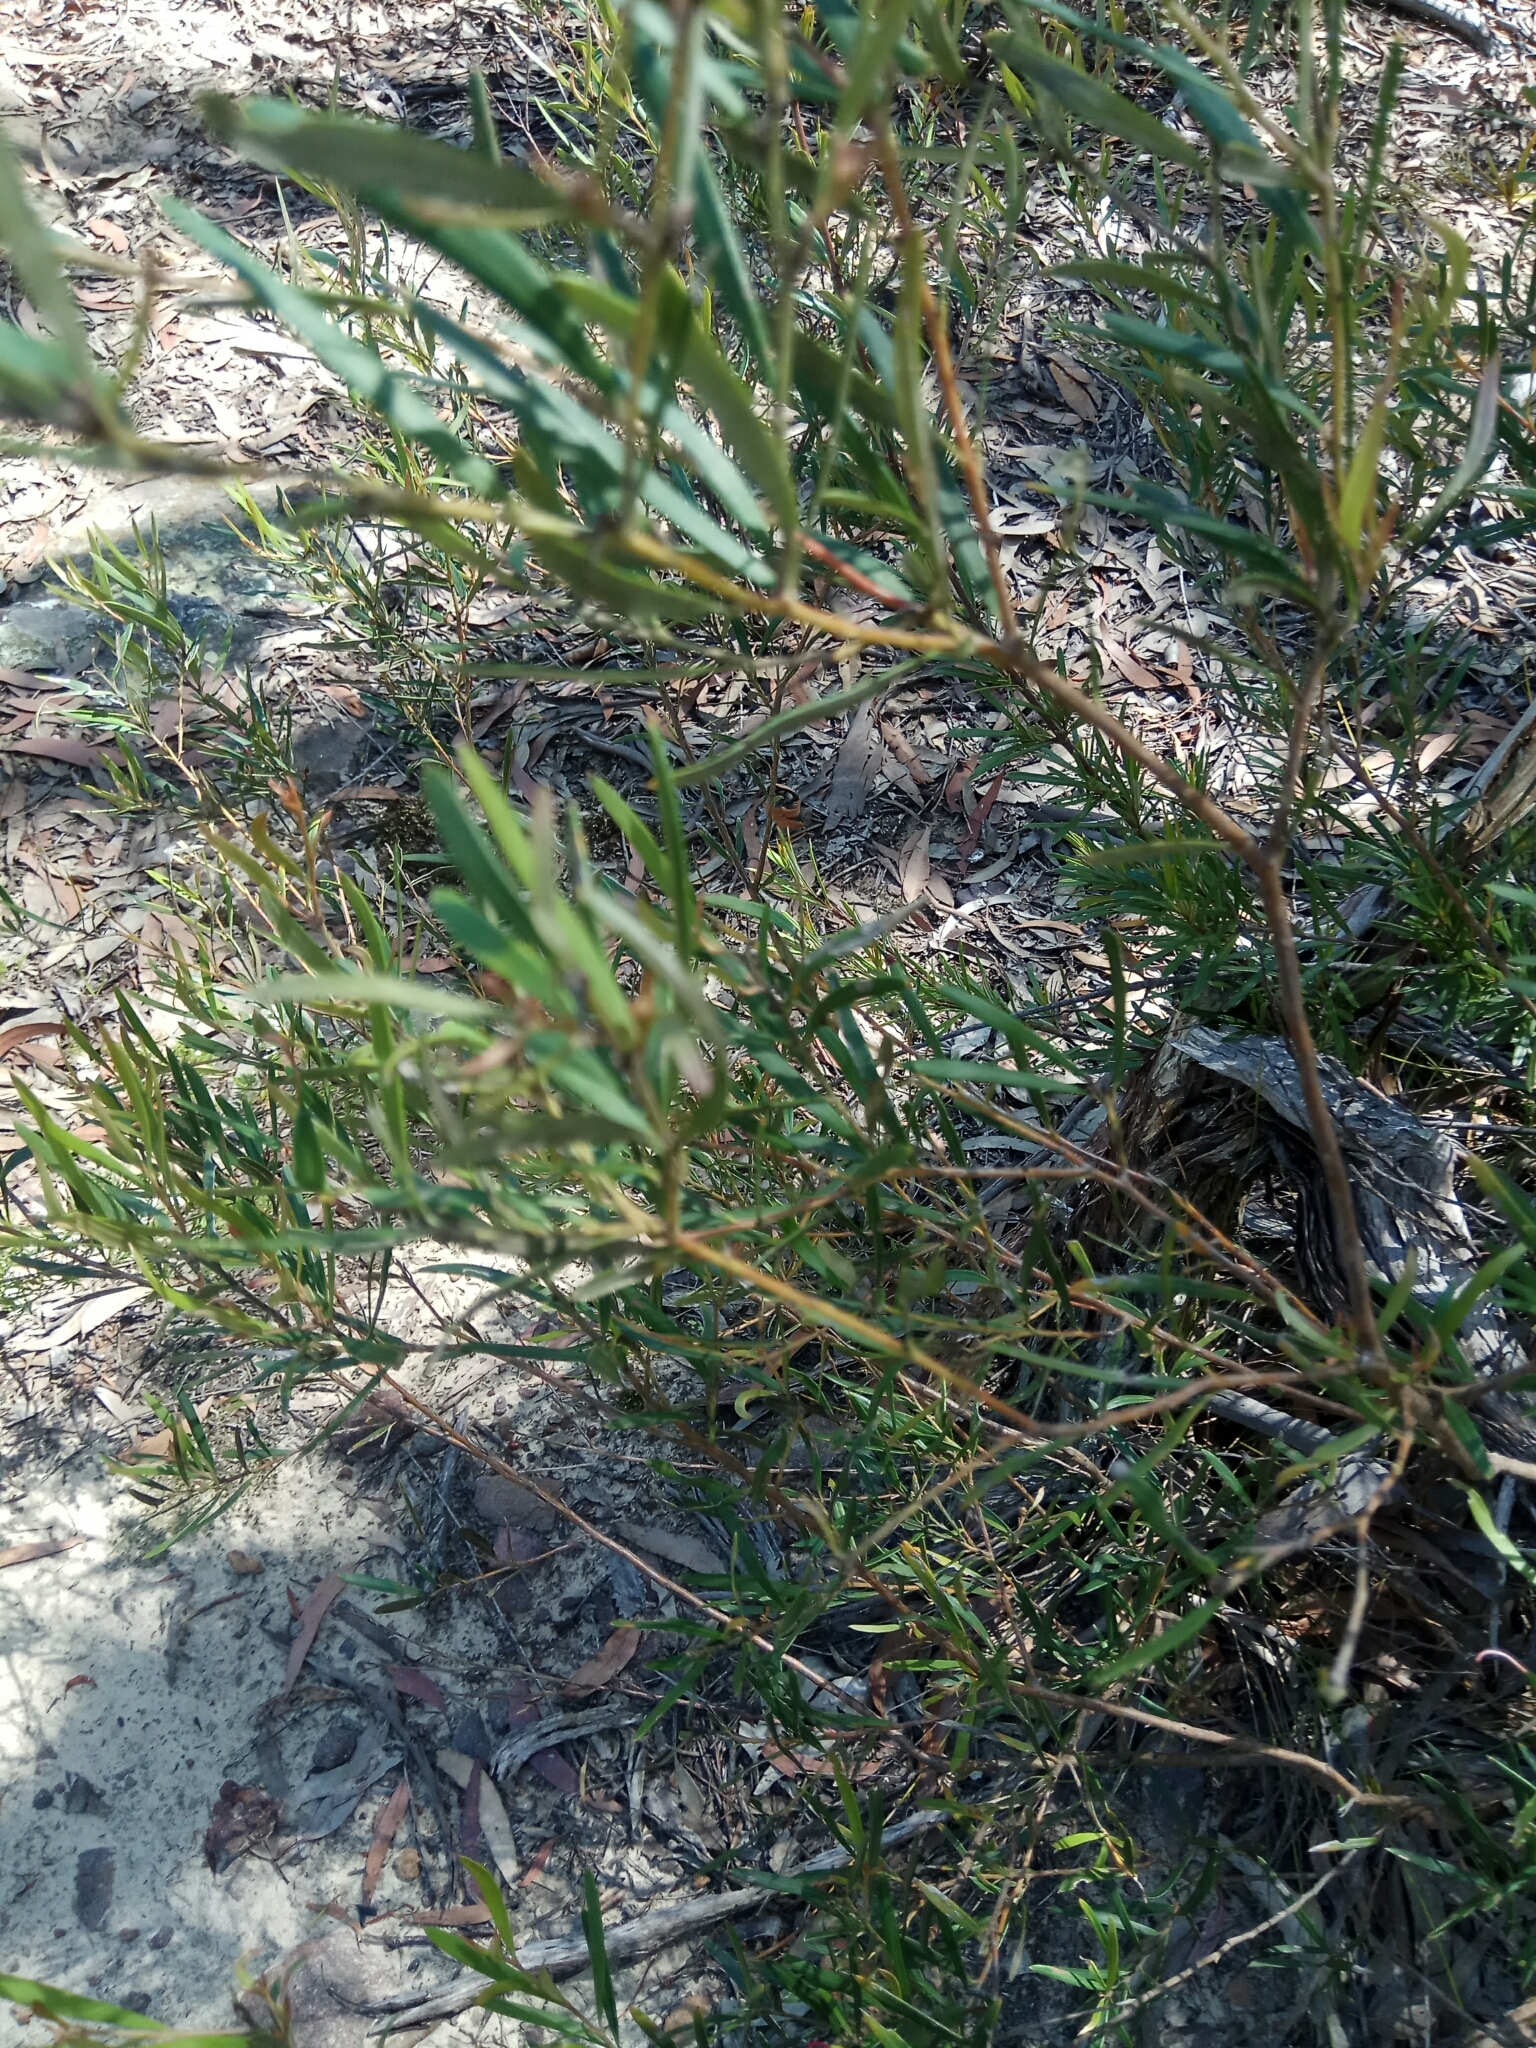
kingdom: Plantae
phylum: Tracheophyta
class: Magnoliopsida
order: Proteales
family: Proteaceae
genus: Grevillea
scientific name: Grevillea sericea
